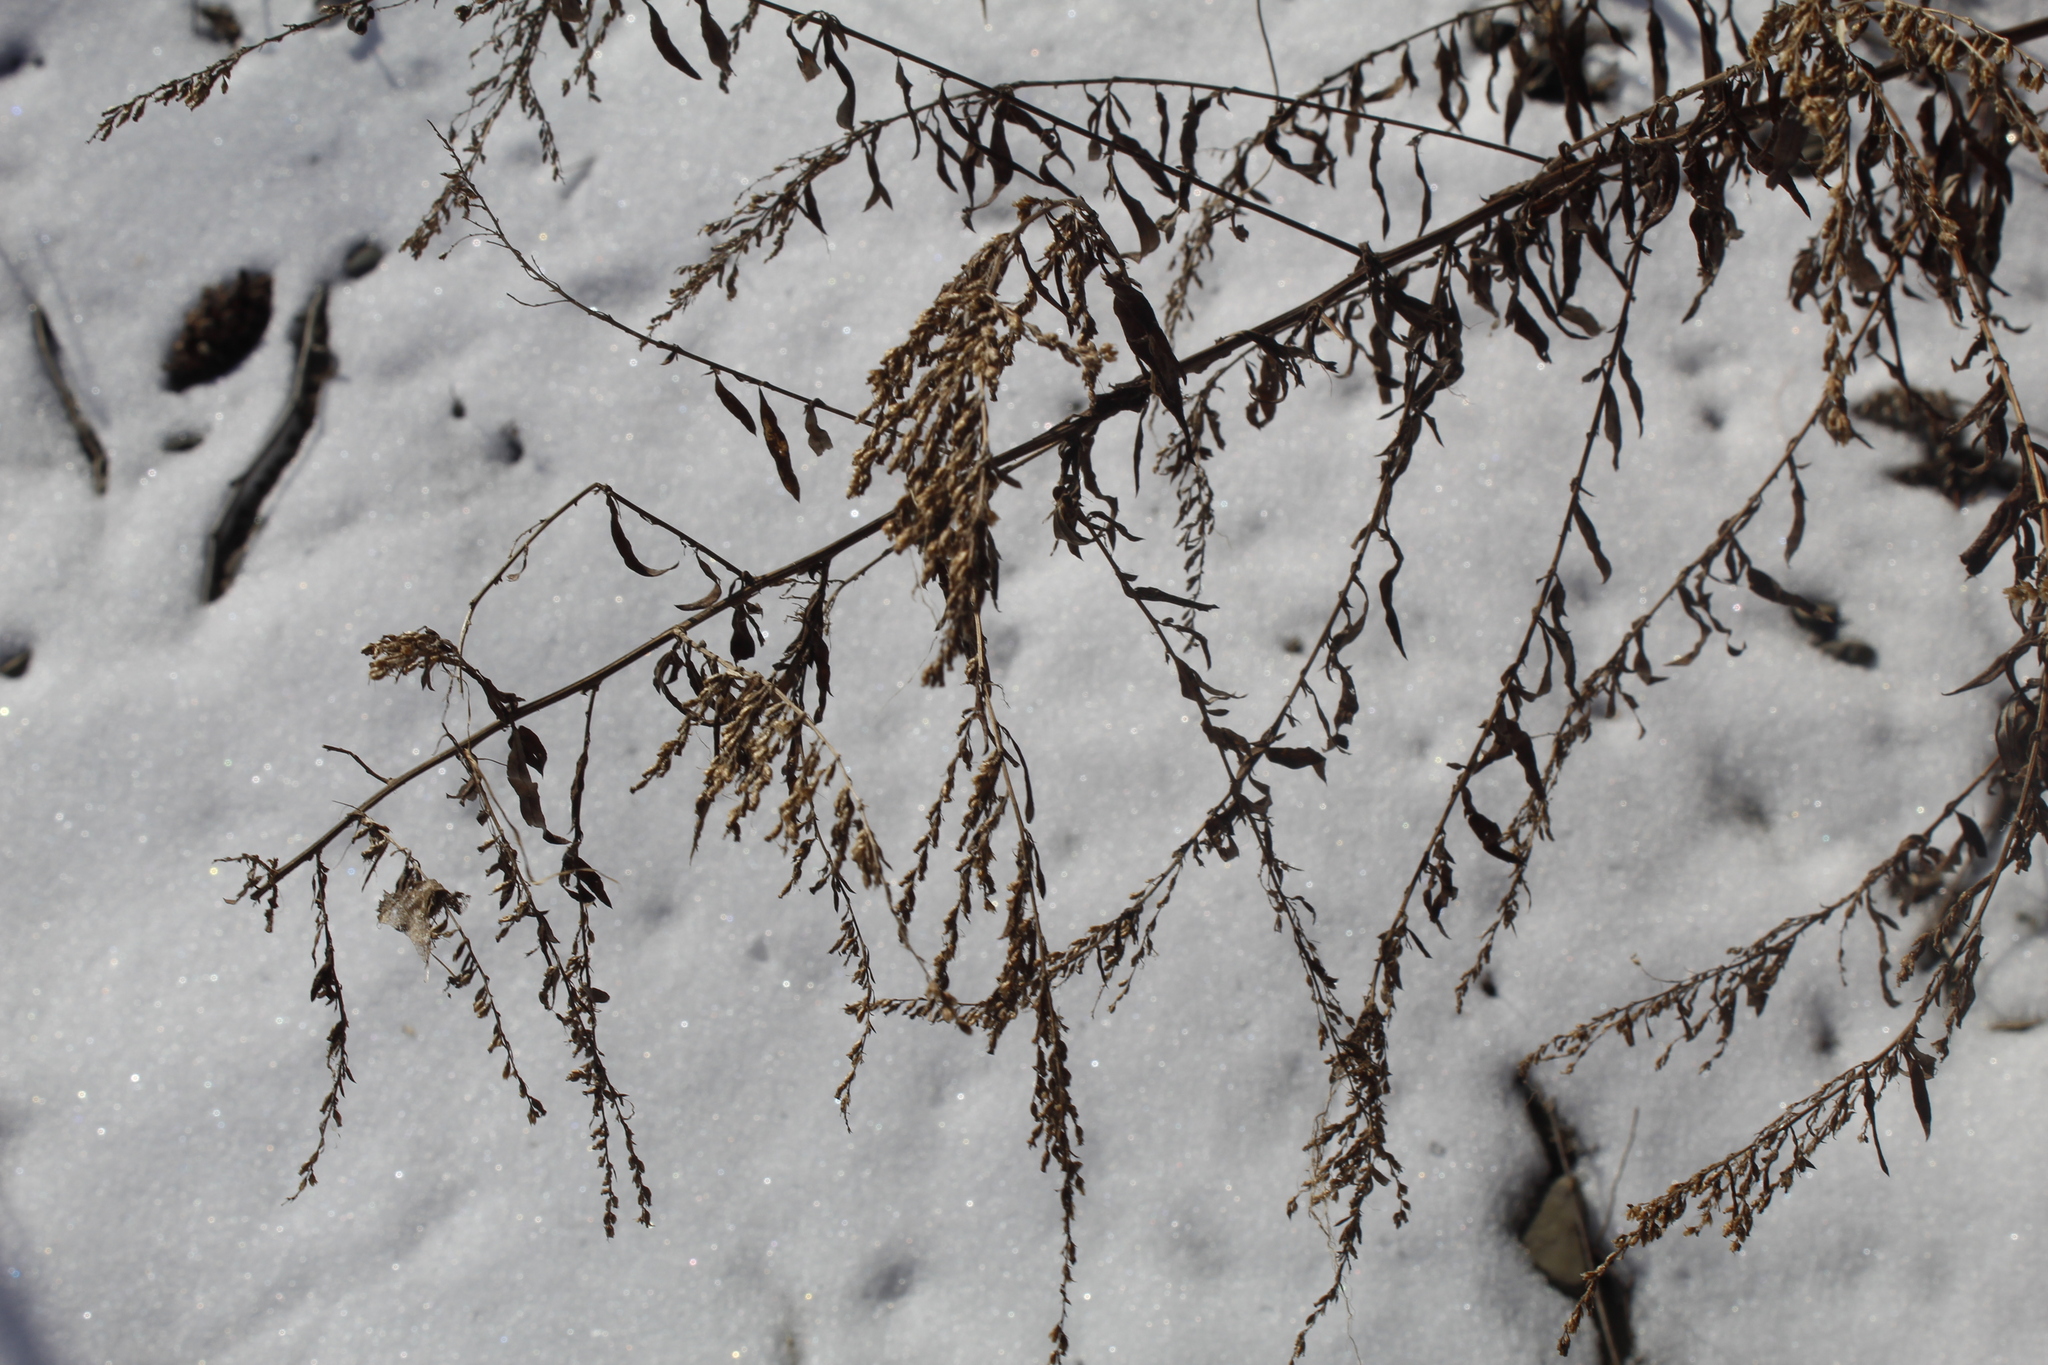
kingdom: Plantae
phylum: Tracheophyta
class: Magnoliopsida
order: Asterales
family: Asteraceae
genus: Artemisia
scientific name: Artemisia vulgaris
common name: Mugwort
